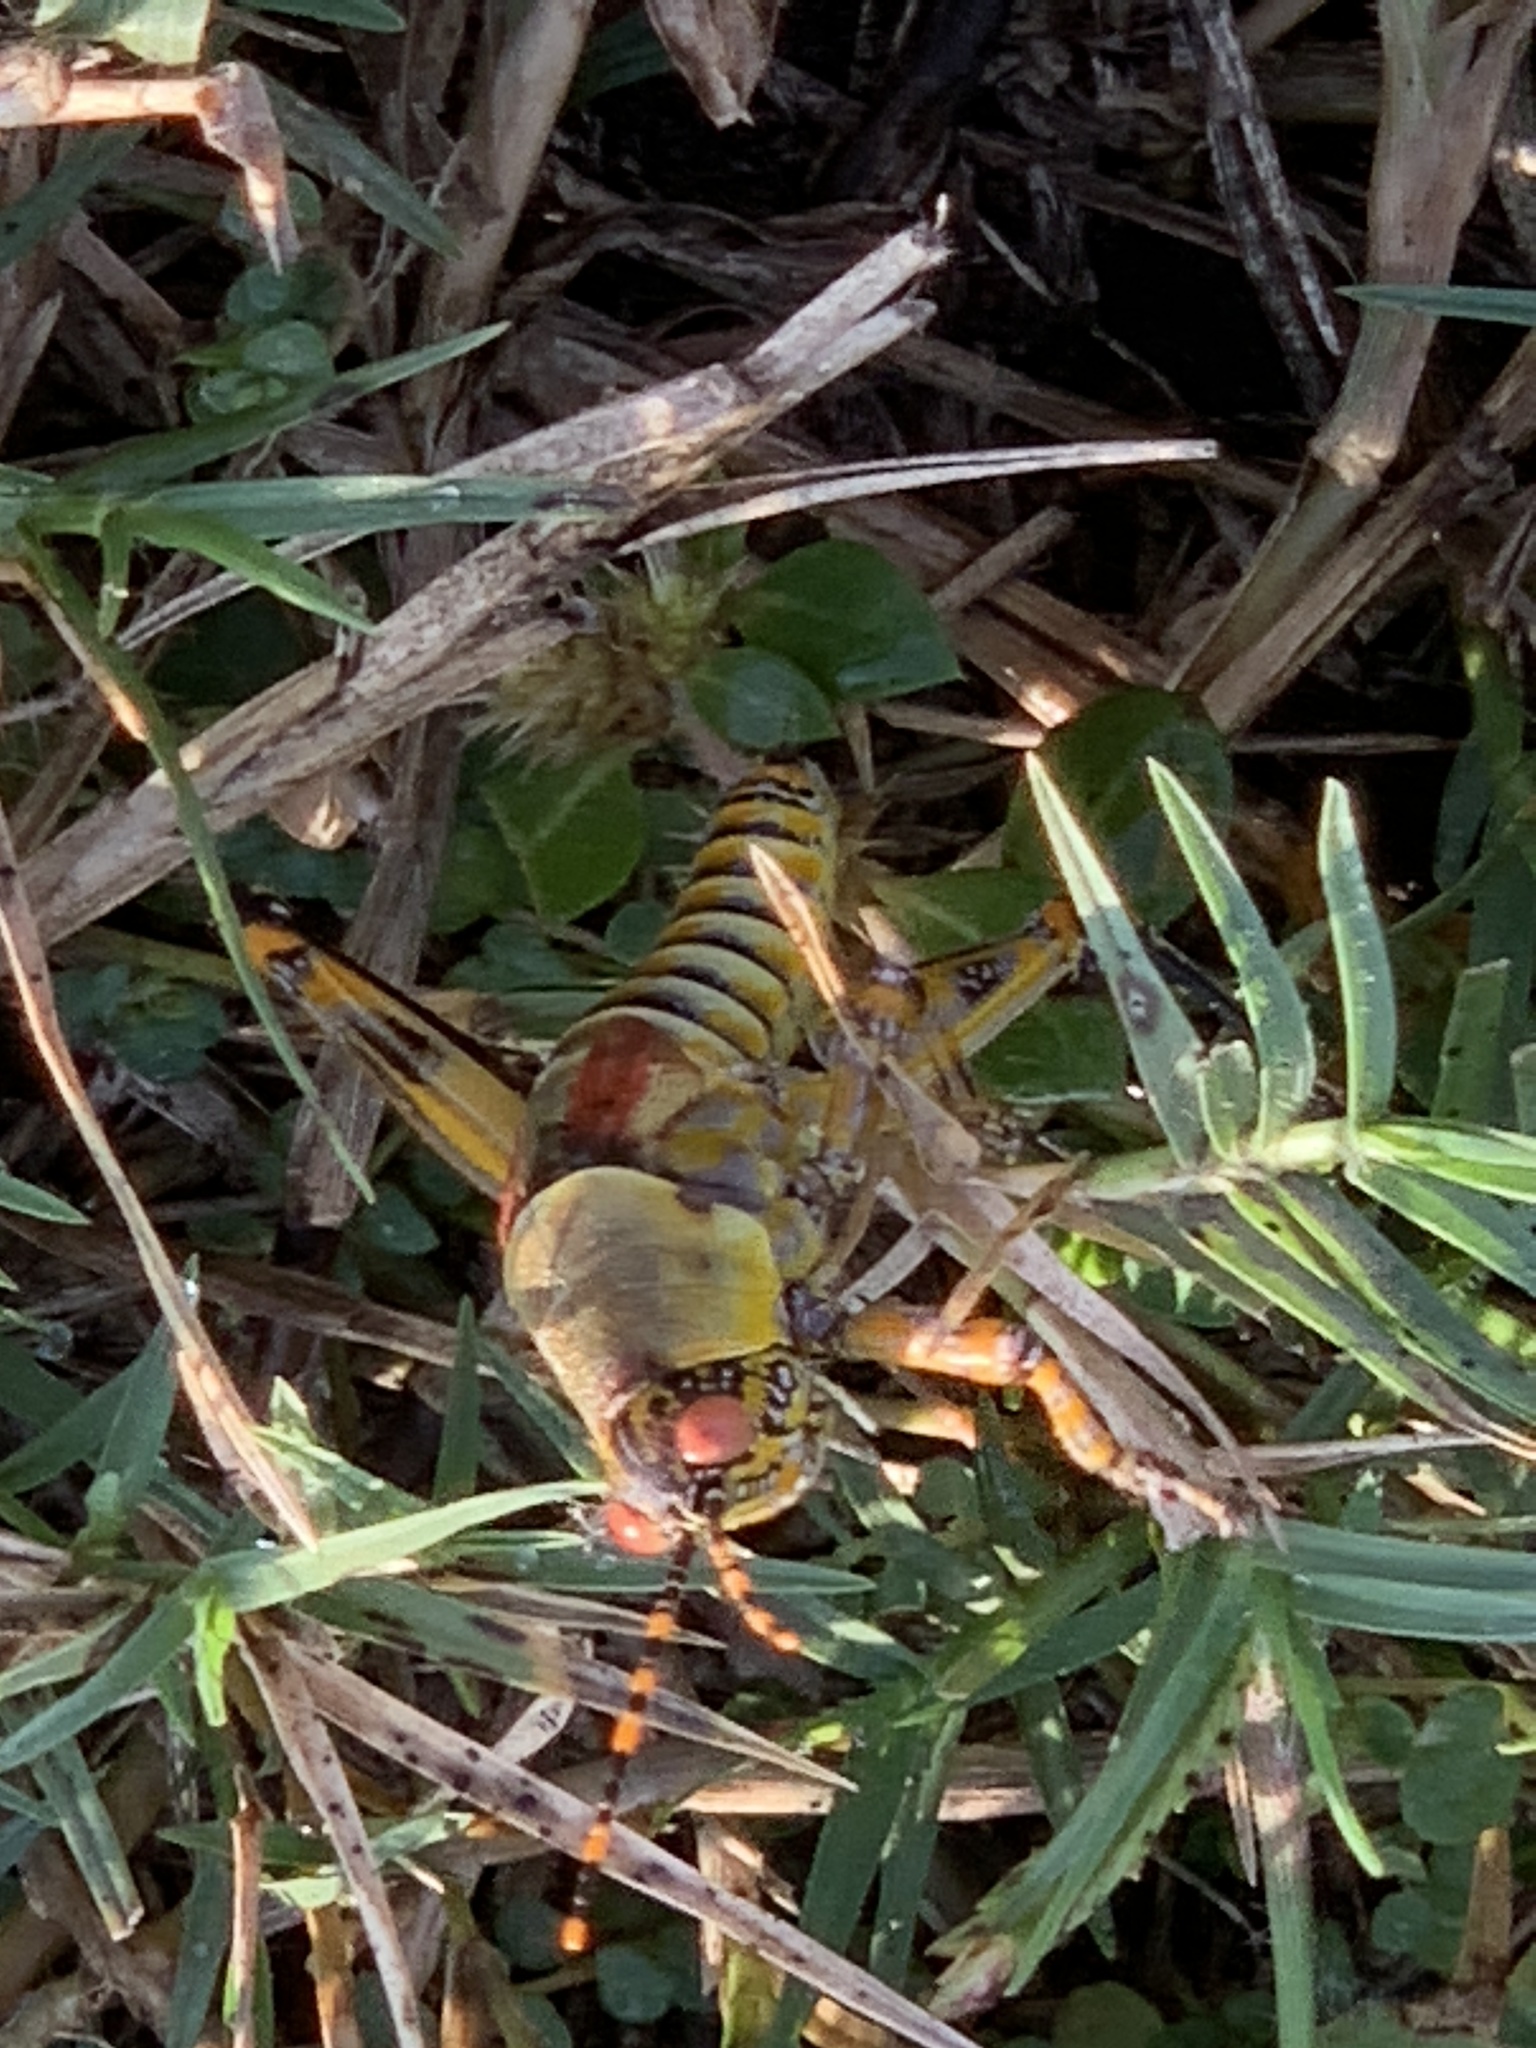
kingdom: Animalia
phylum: Arthropoda
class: Insecta
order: Orthoptera
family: Pyrgomorphidae
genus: Zonocerus
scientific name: Zonocerus elegans
